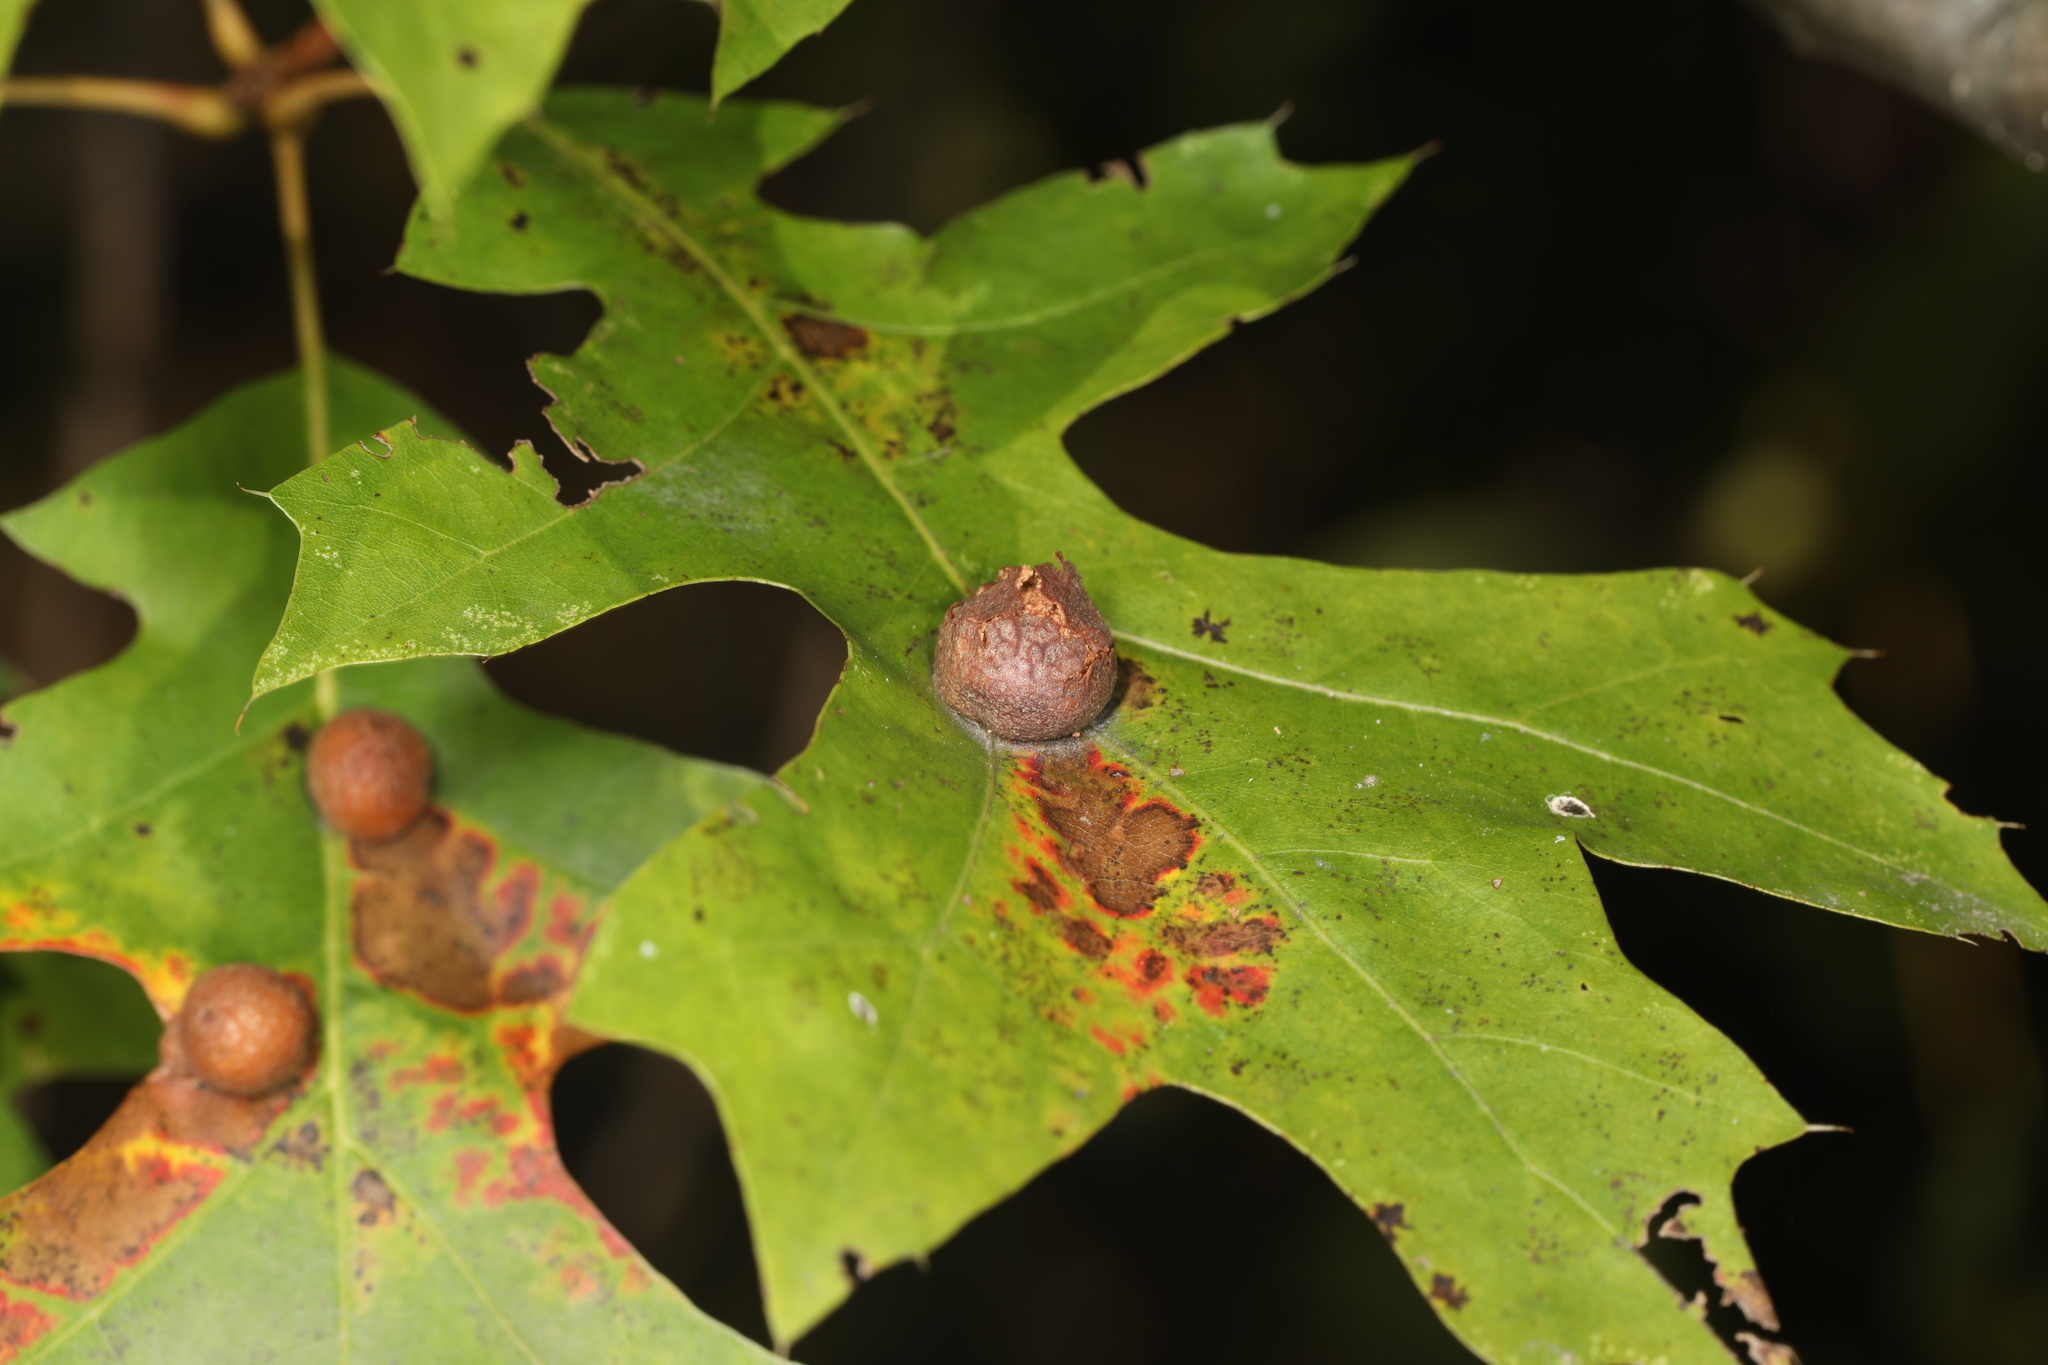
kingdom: Animalia
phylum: Arthropoda
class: Insecta
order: Diptera
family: Cecidomyiidae
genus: Polystepha
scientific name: Polystepha pilulae
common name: Oak leaf gall midge
